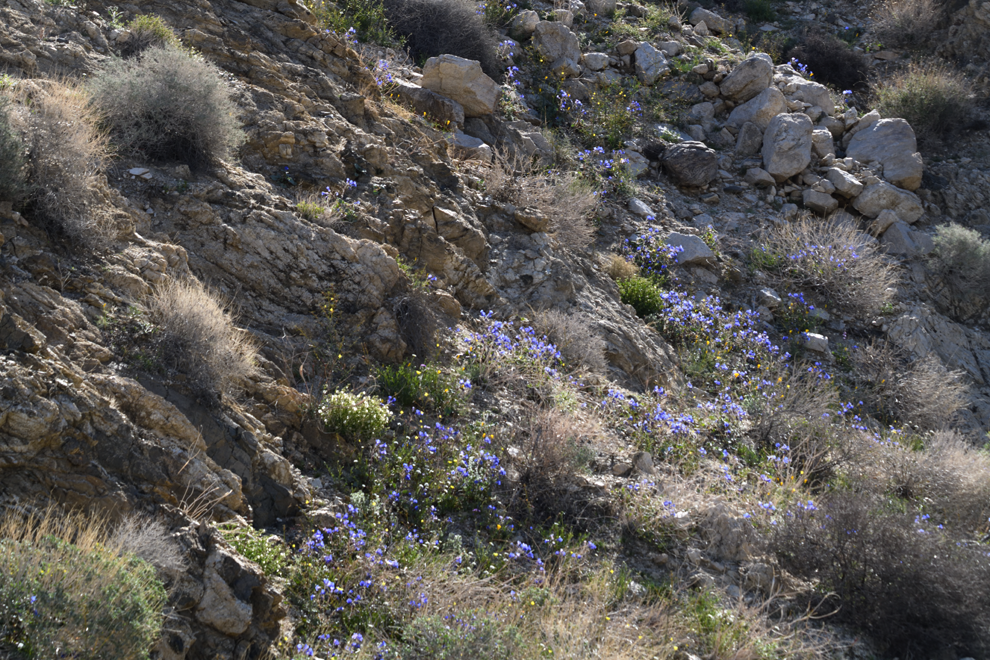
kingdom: Plantae
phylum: Tracheophyta
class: Magnoliopsida
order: Boraginales
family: Hydrophyllaceae
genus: Phacelia
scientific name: Phacelia campanularia
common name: California bluebell
